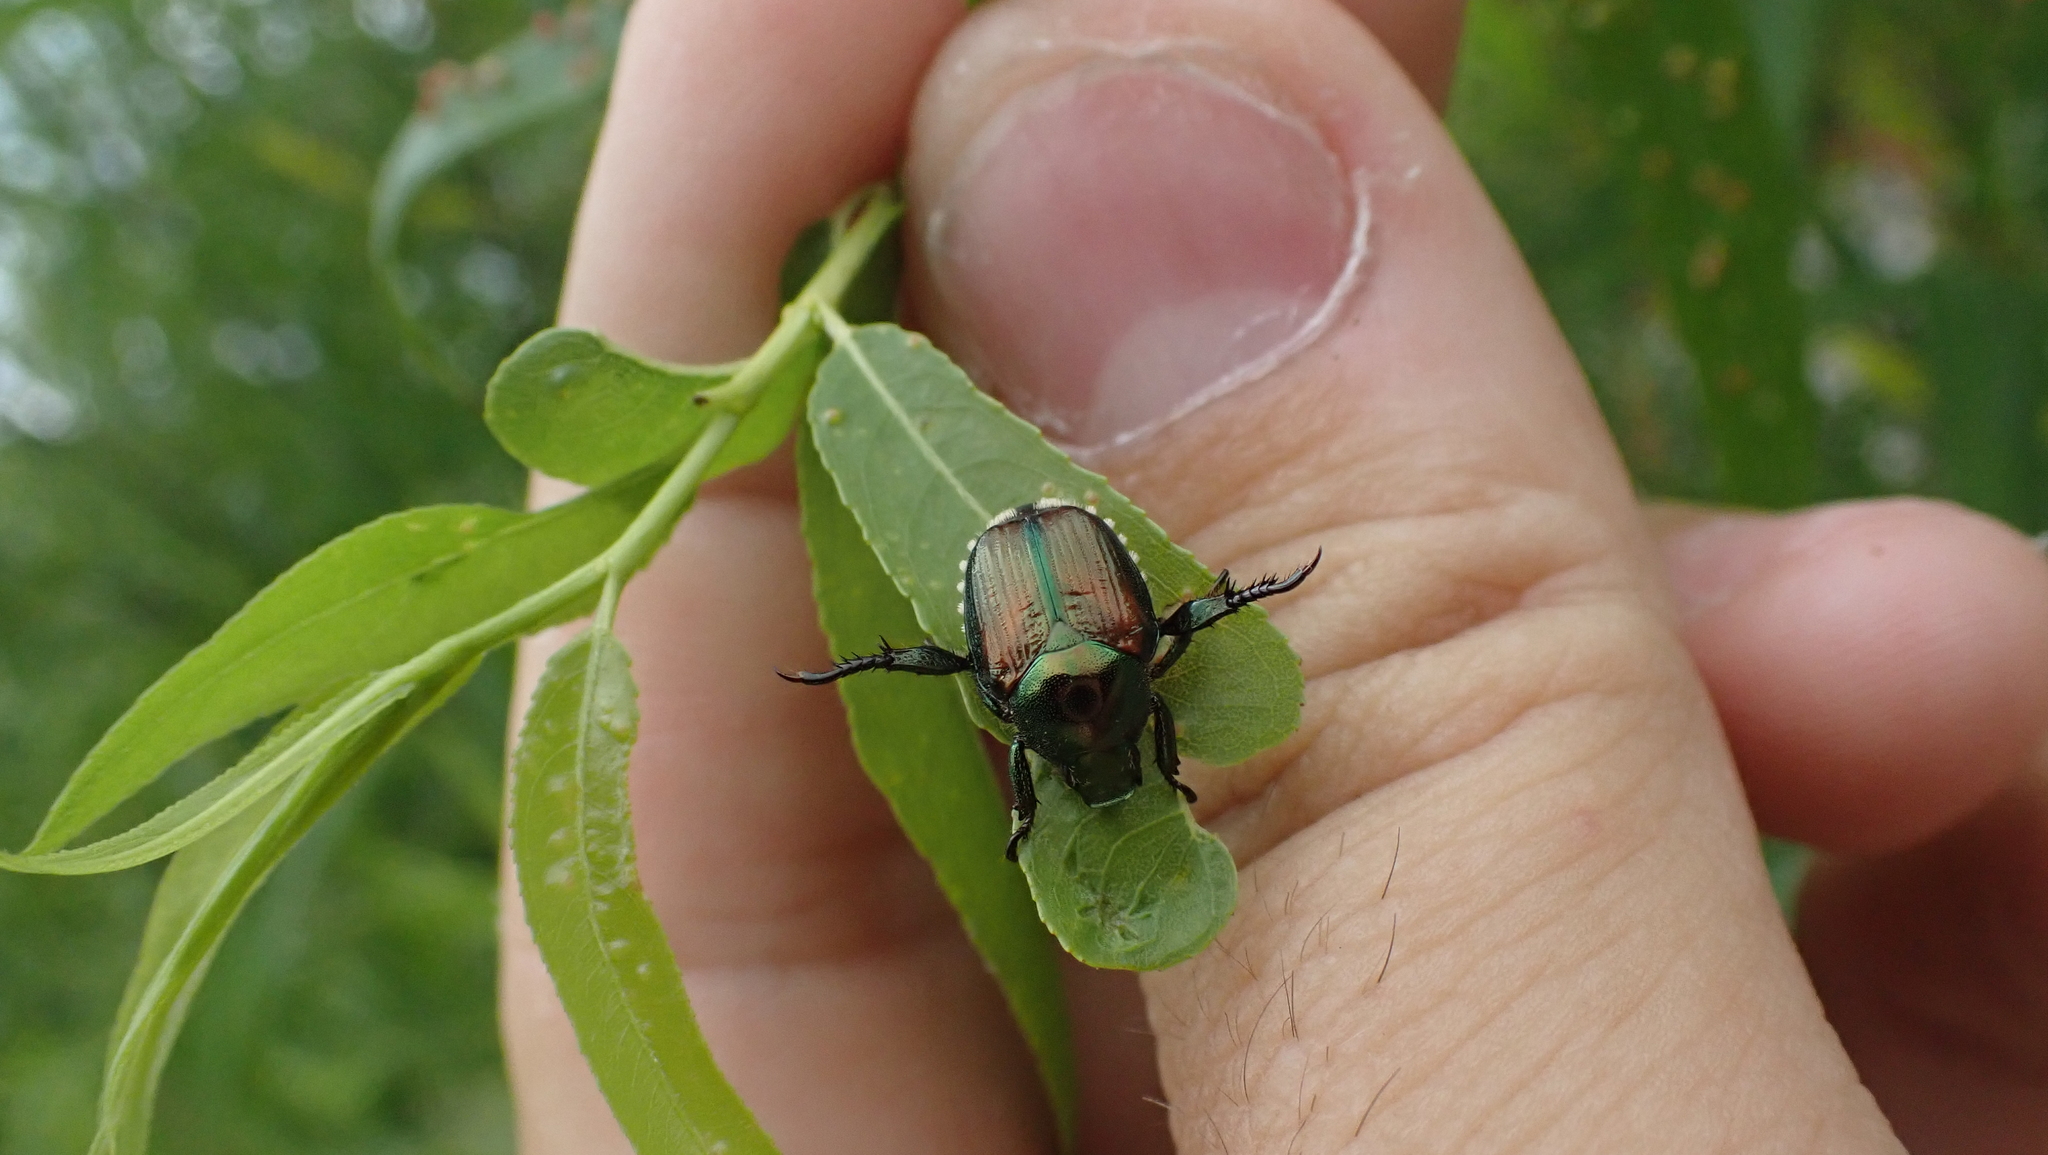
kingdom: Animalia
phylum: Arthropoda
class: Insecta
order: Coleoptera
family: Scarabaeidae
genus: Popillia
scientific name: Popillia japonica
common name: Japanese beetle
